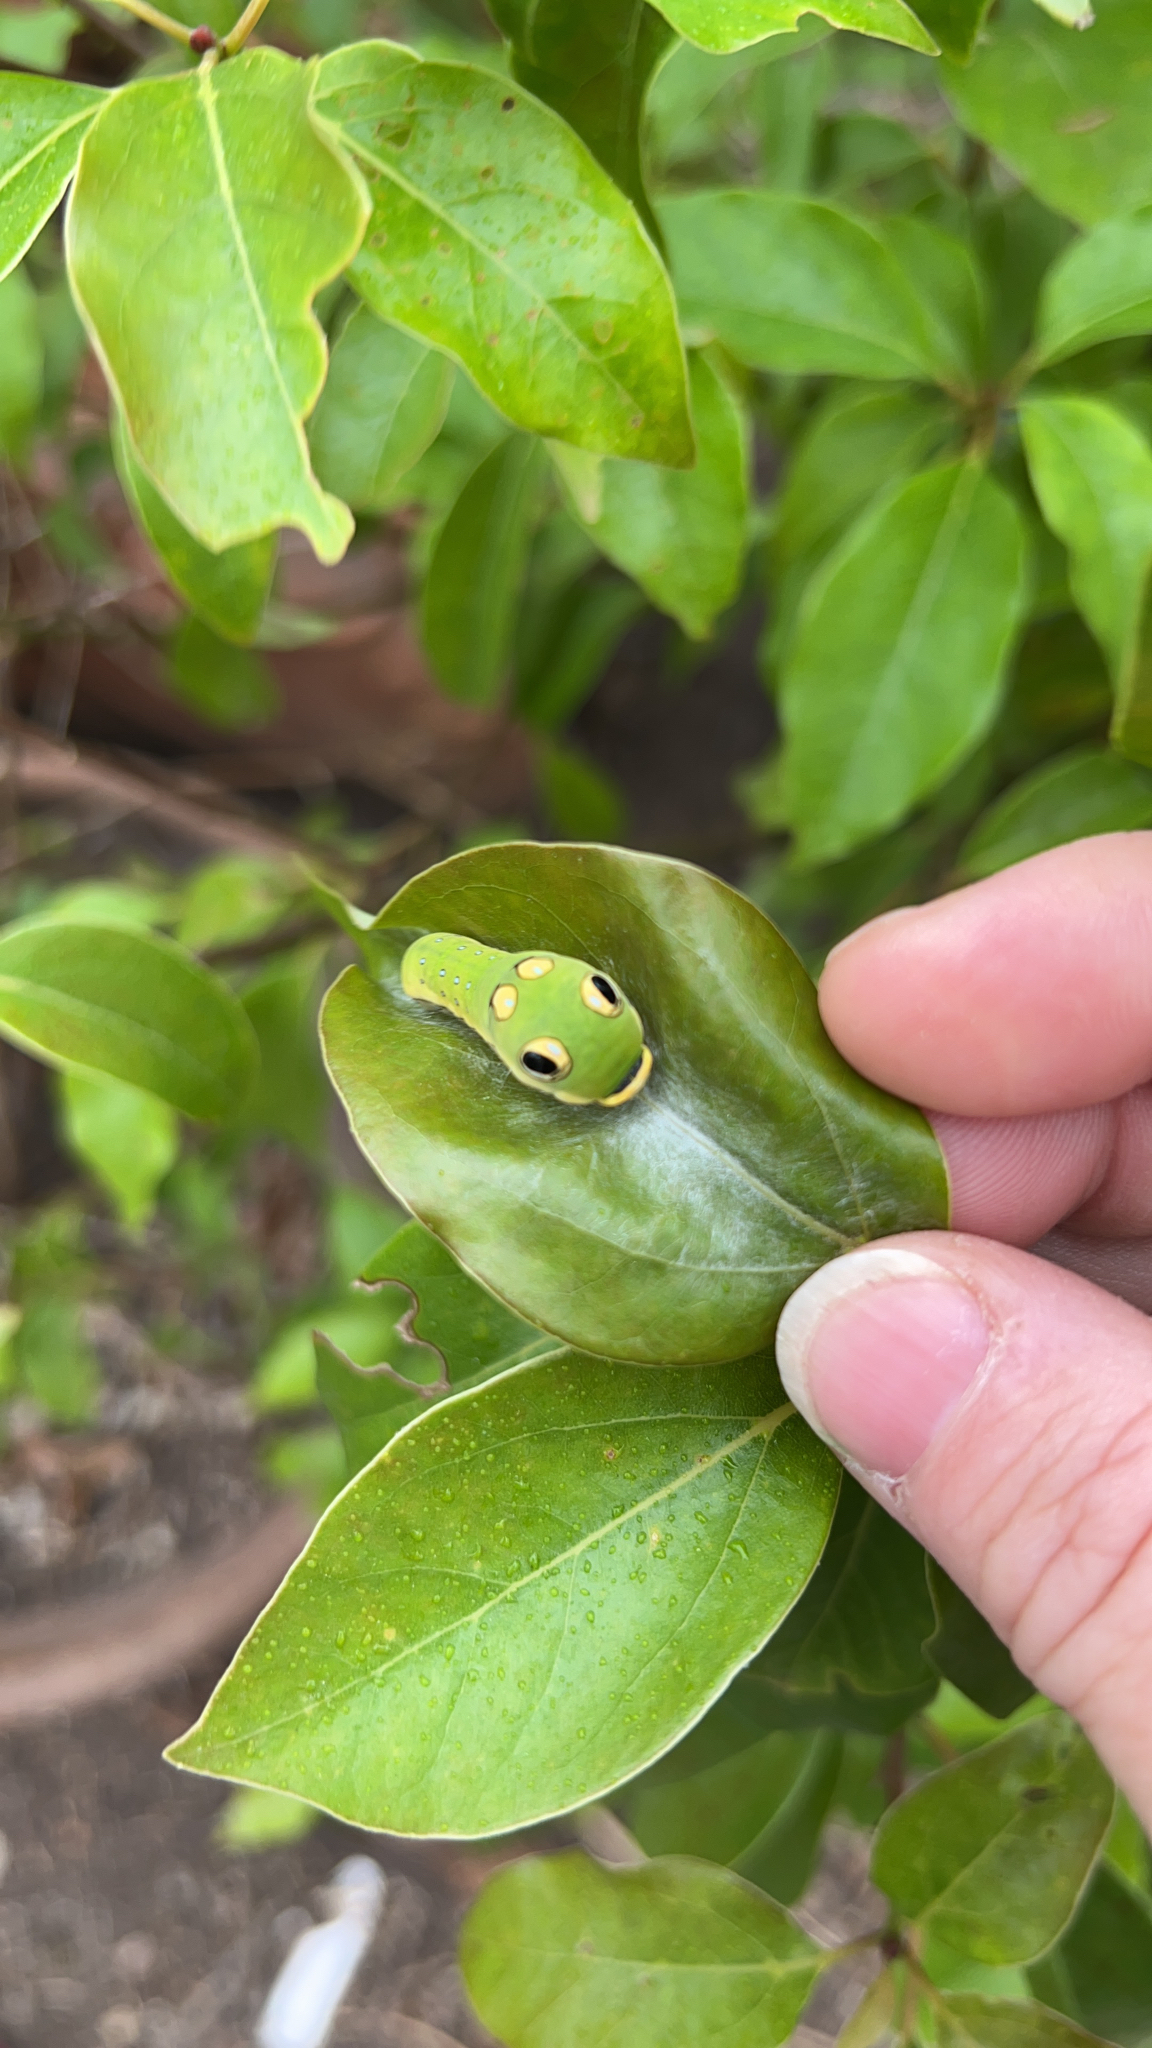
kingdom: Animalia
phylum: Arthropoda
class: Insecta
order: Lepidoptera
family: Papilionidae
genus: Papilio
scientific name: Papilio troilus
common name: Spicebush swallowtail
